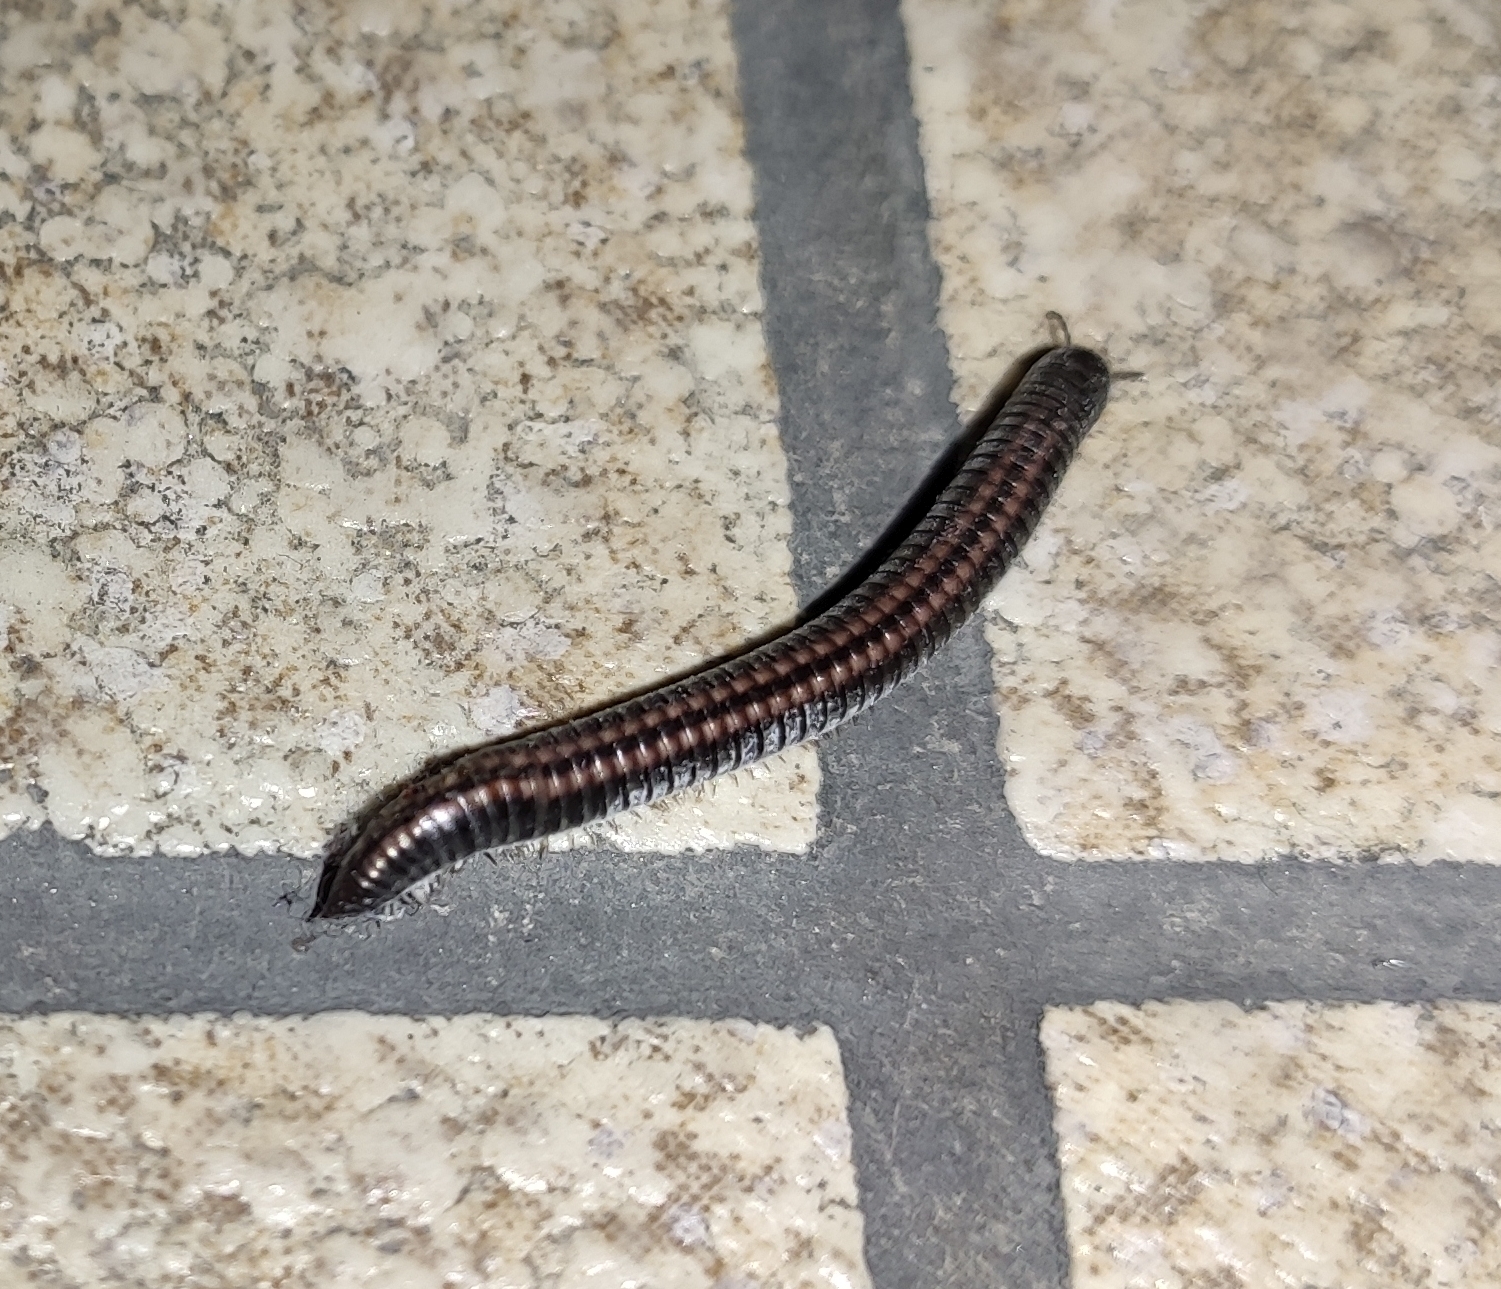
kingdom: Animalia
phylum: Arthropoda
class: Diplopoda
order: Julida
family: Julidae
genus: Ommatoiulus
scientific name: Ommatoiulus sabulosus
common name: Striped millipede
